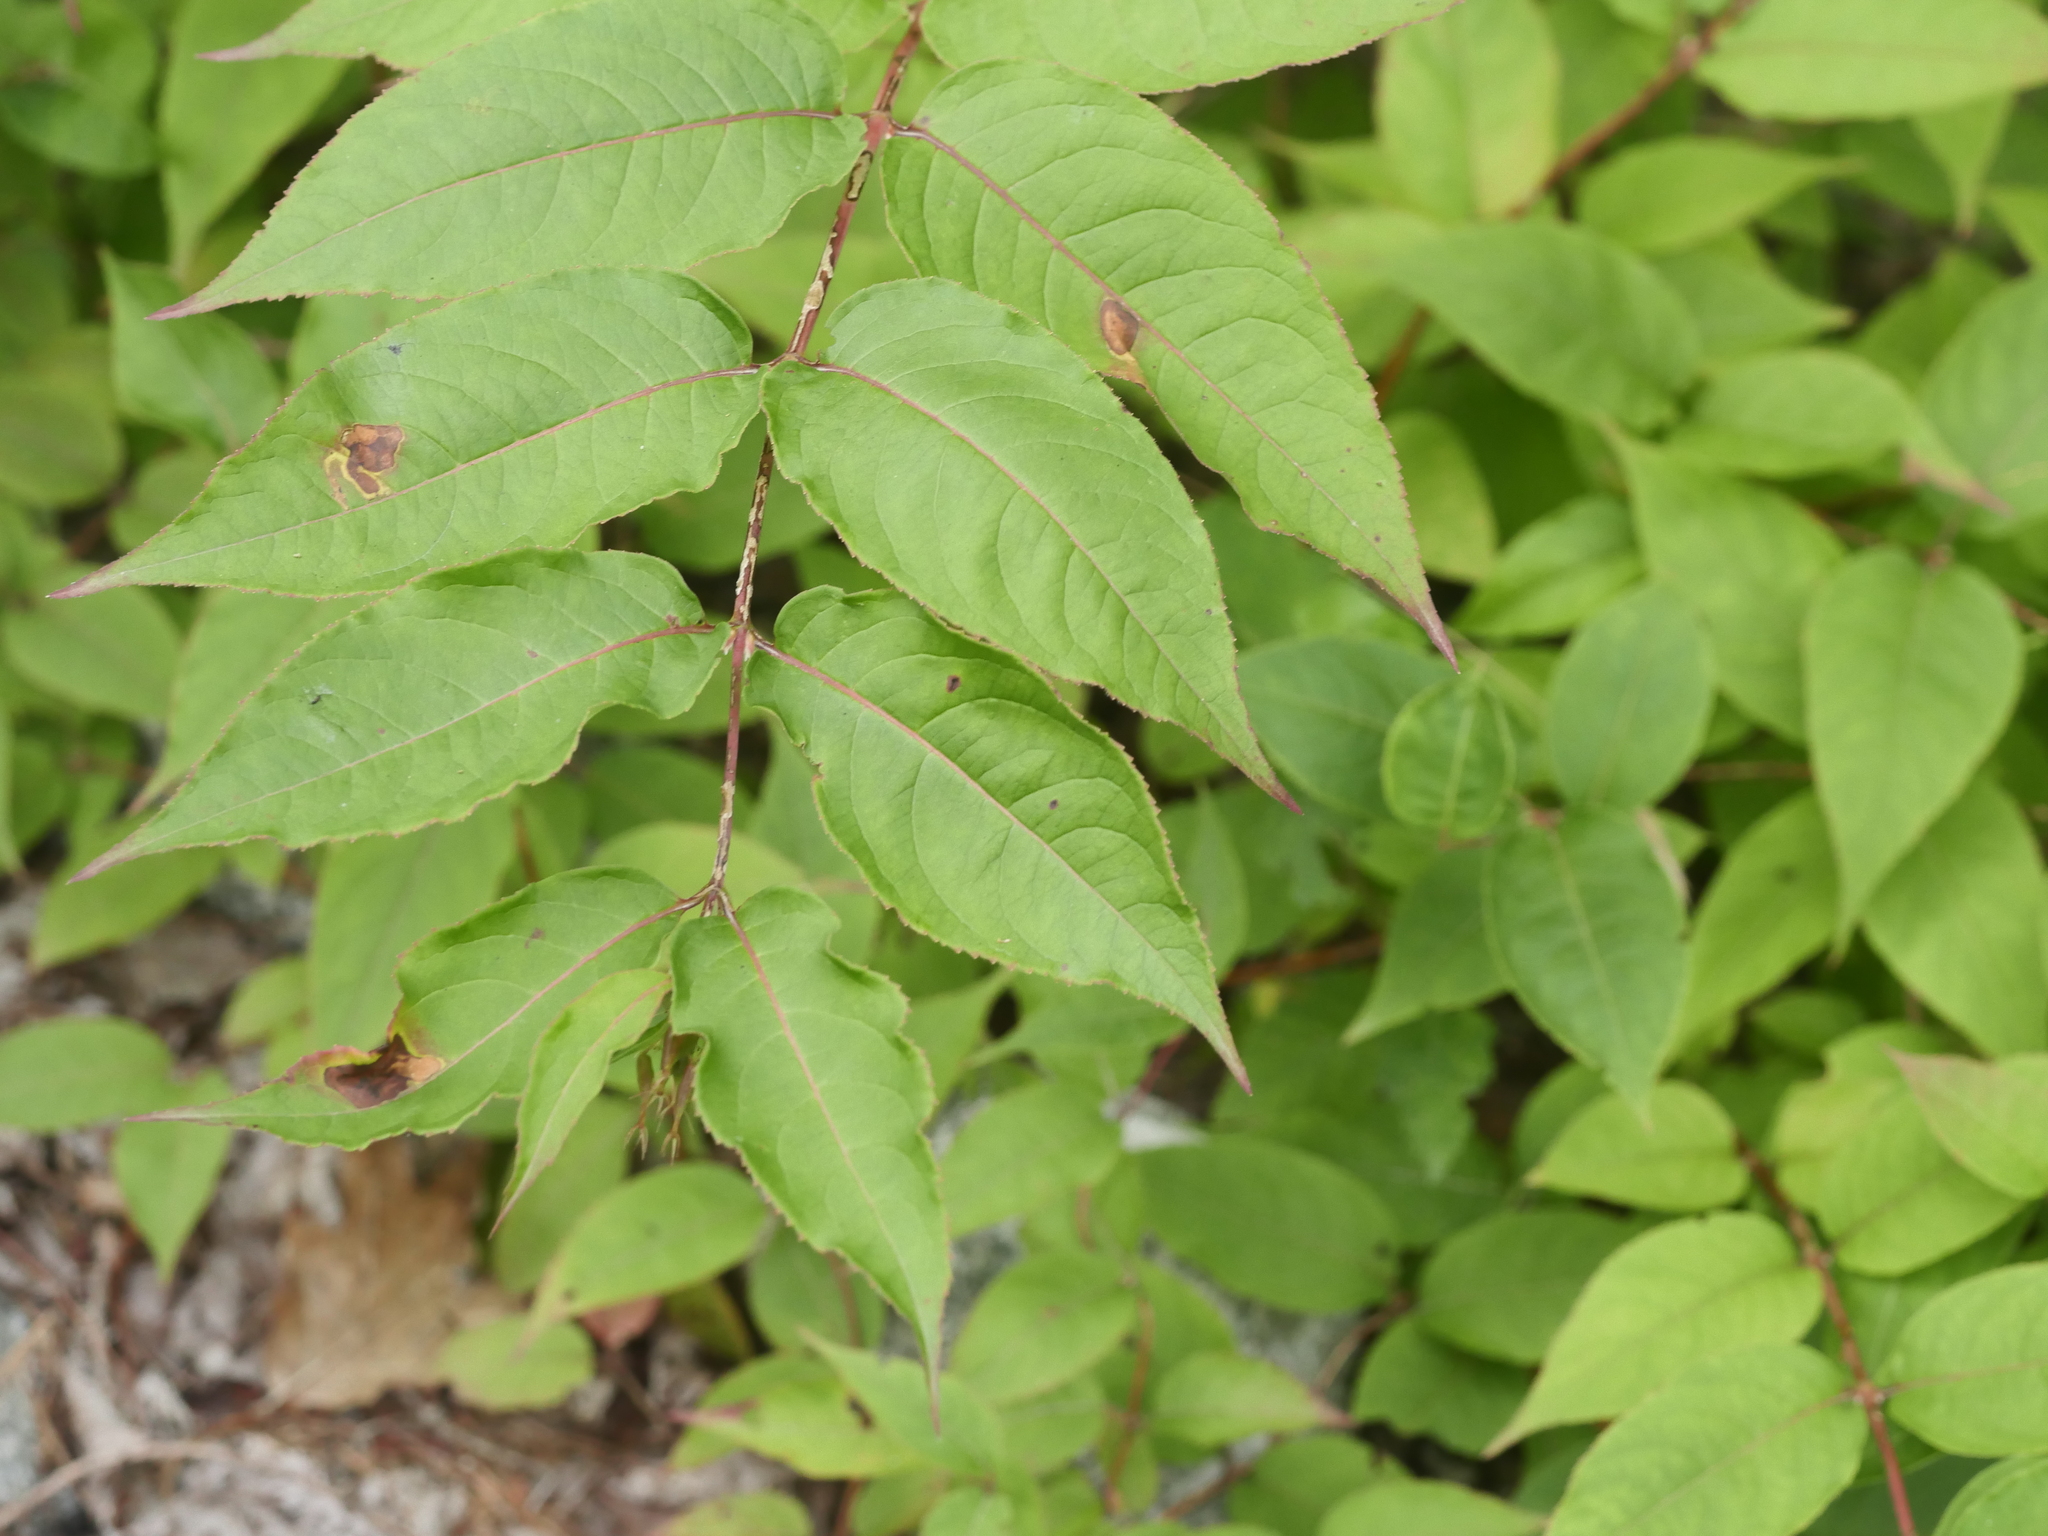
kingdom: Plantae
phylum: Tracheophyta
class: Magnoliopsida
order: Dipsacales
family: Caprifoliaceae
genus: Diervilla
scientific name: Diervilla lonicera
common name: Bush-honeysuckle
